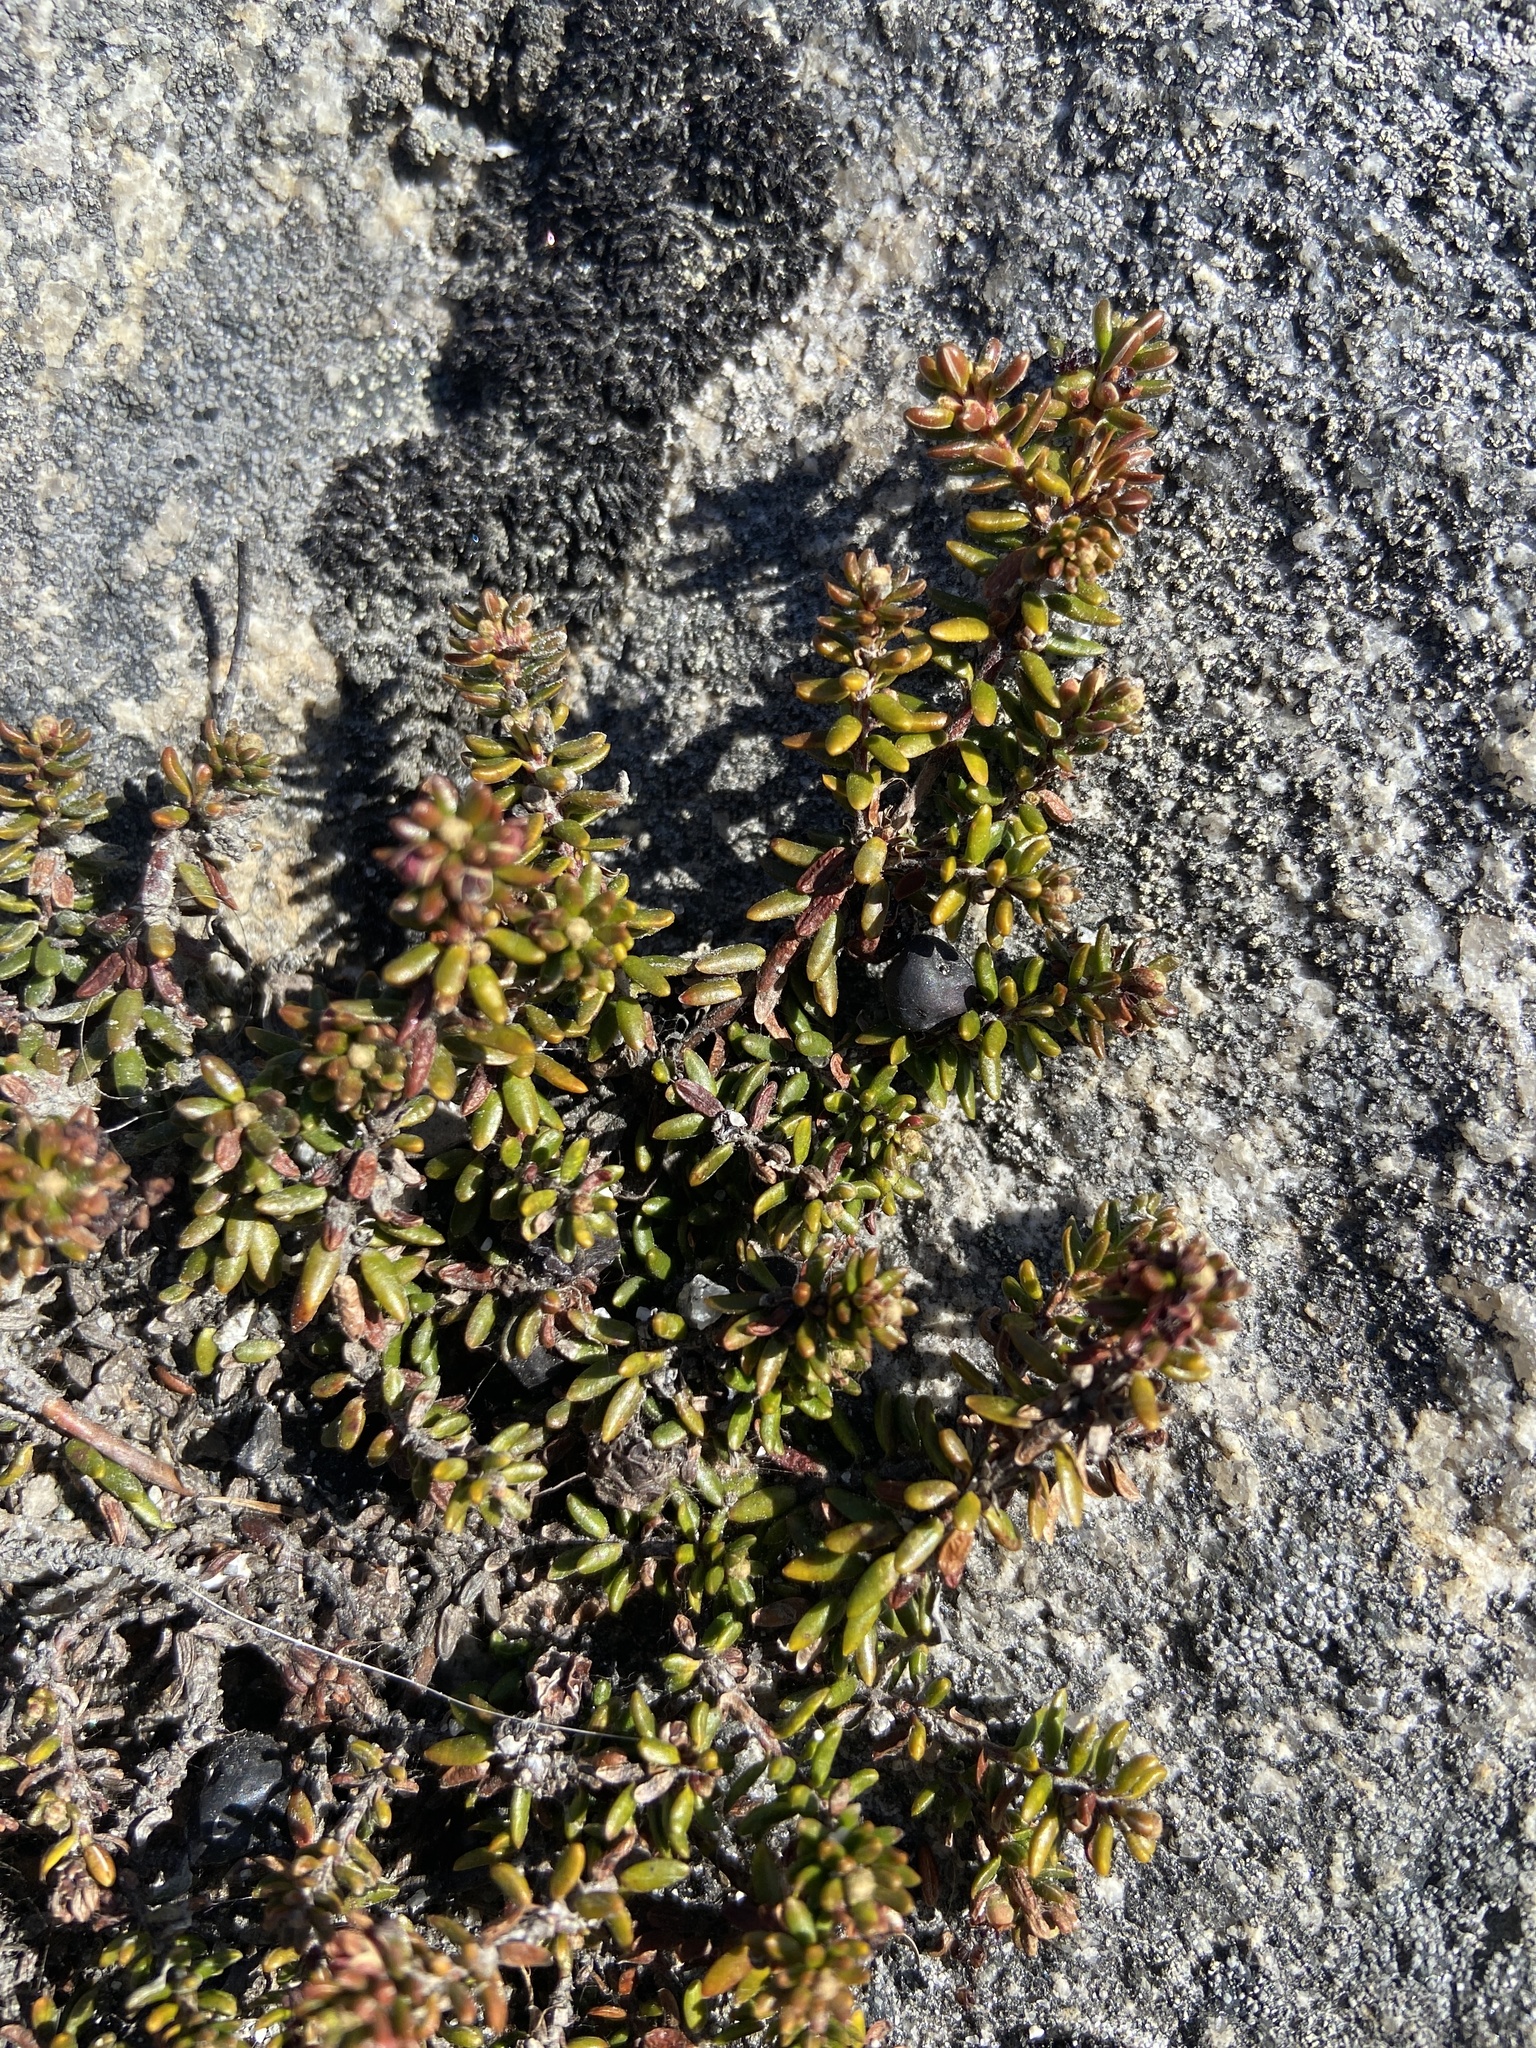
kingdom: Plantae
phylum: Tracheophyta
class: Magnoliopsida
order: Ericales
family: Ericaceae
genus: Empetrum
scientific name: Empetrum nigrum
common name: Black crowberry
